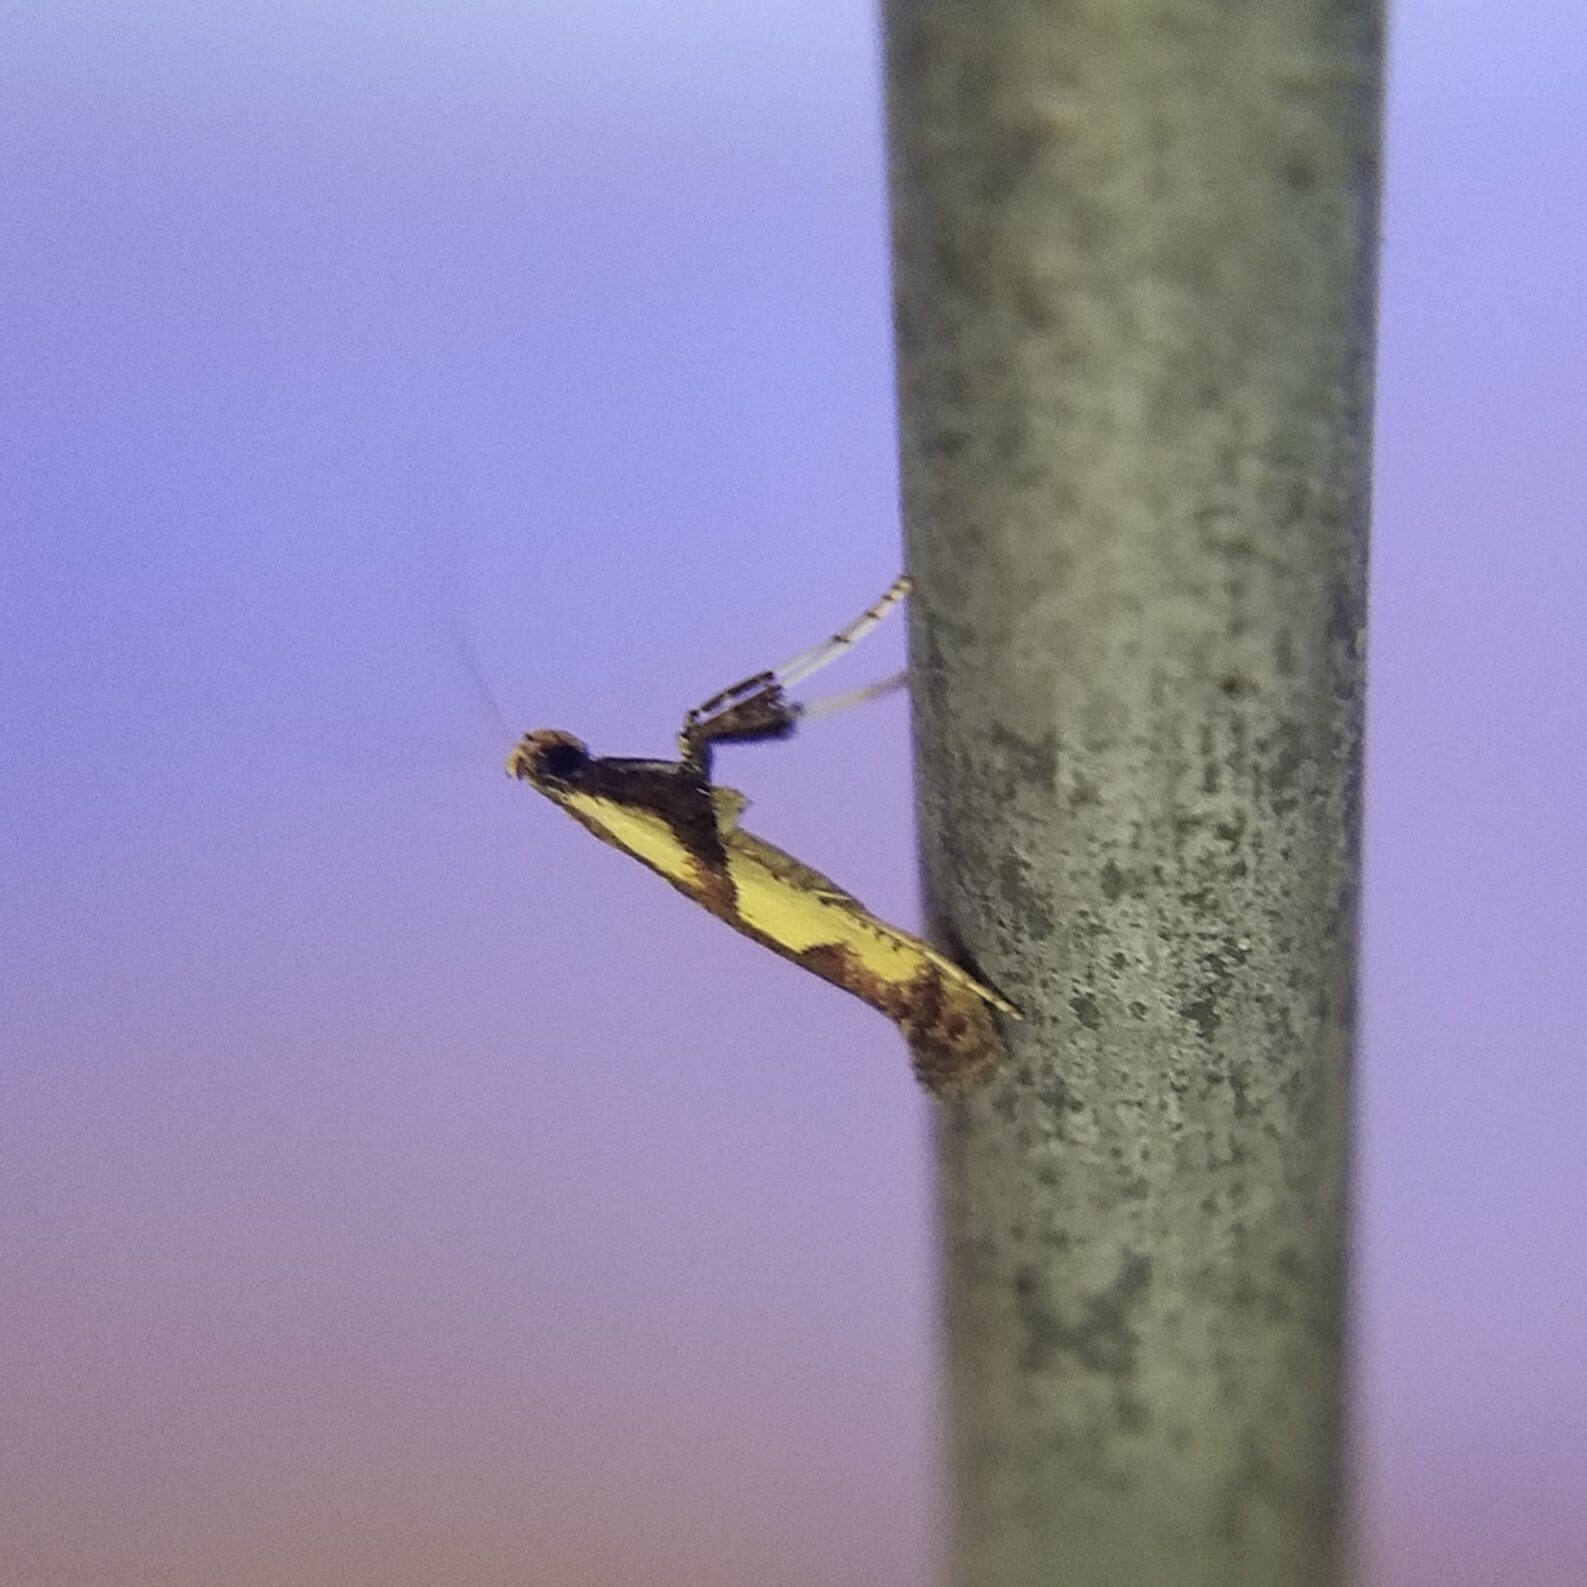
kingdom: Animalia
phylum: Arthropoda
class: Insecta
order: Lepidoptera
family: Gracillariidae
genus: Caloptilia
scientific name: Caloptilia blandella
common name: Walnut caloptilia moth
